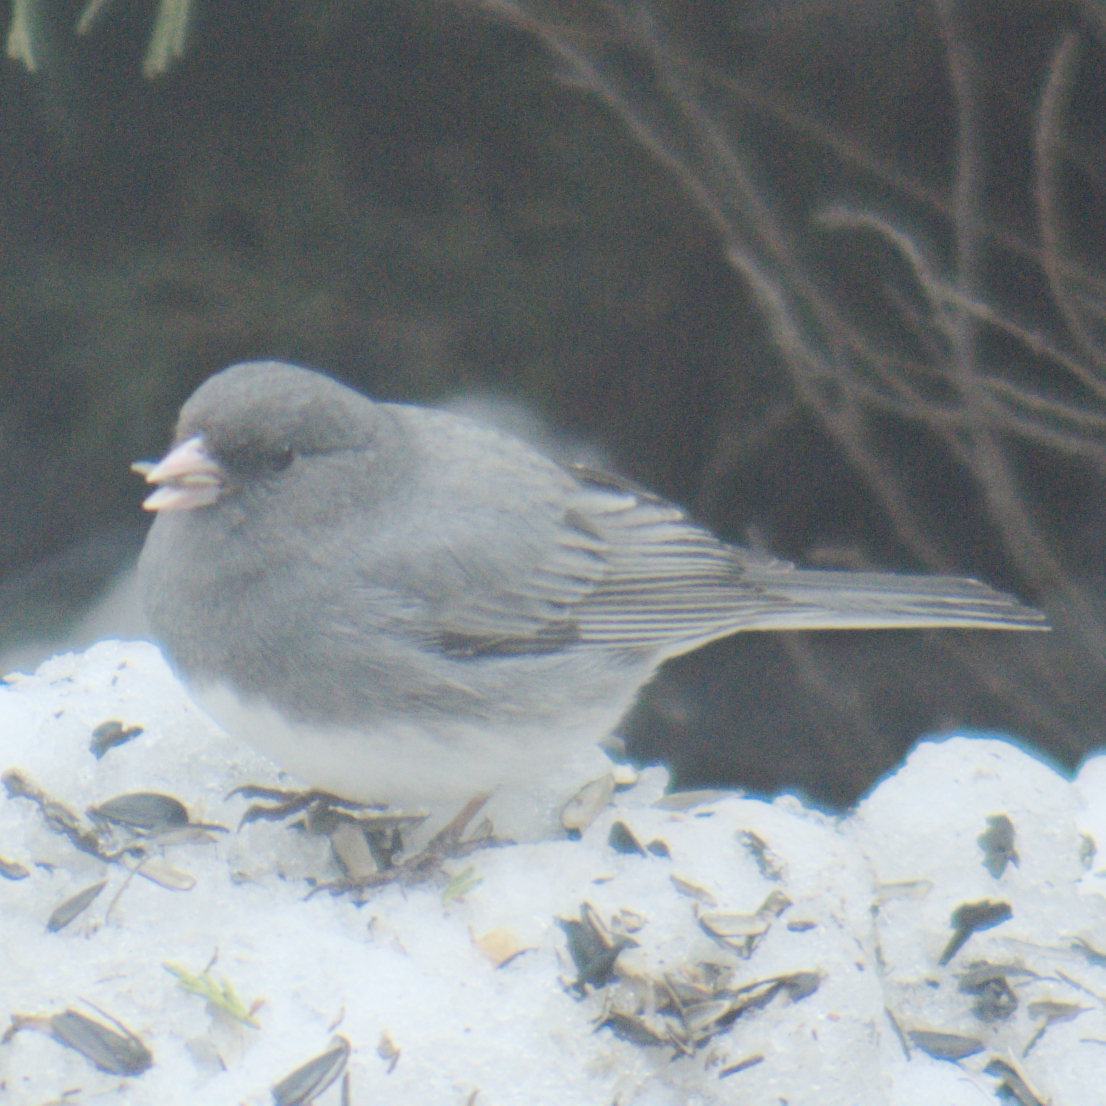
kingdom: Animalia
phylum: Chordata
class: Aves
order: Passeriformes
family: Passerellidae
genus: Junco
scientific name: Junco hyemalis
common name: Dark-eyed junco
